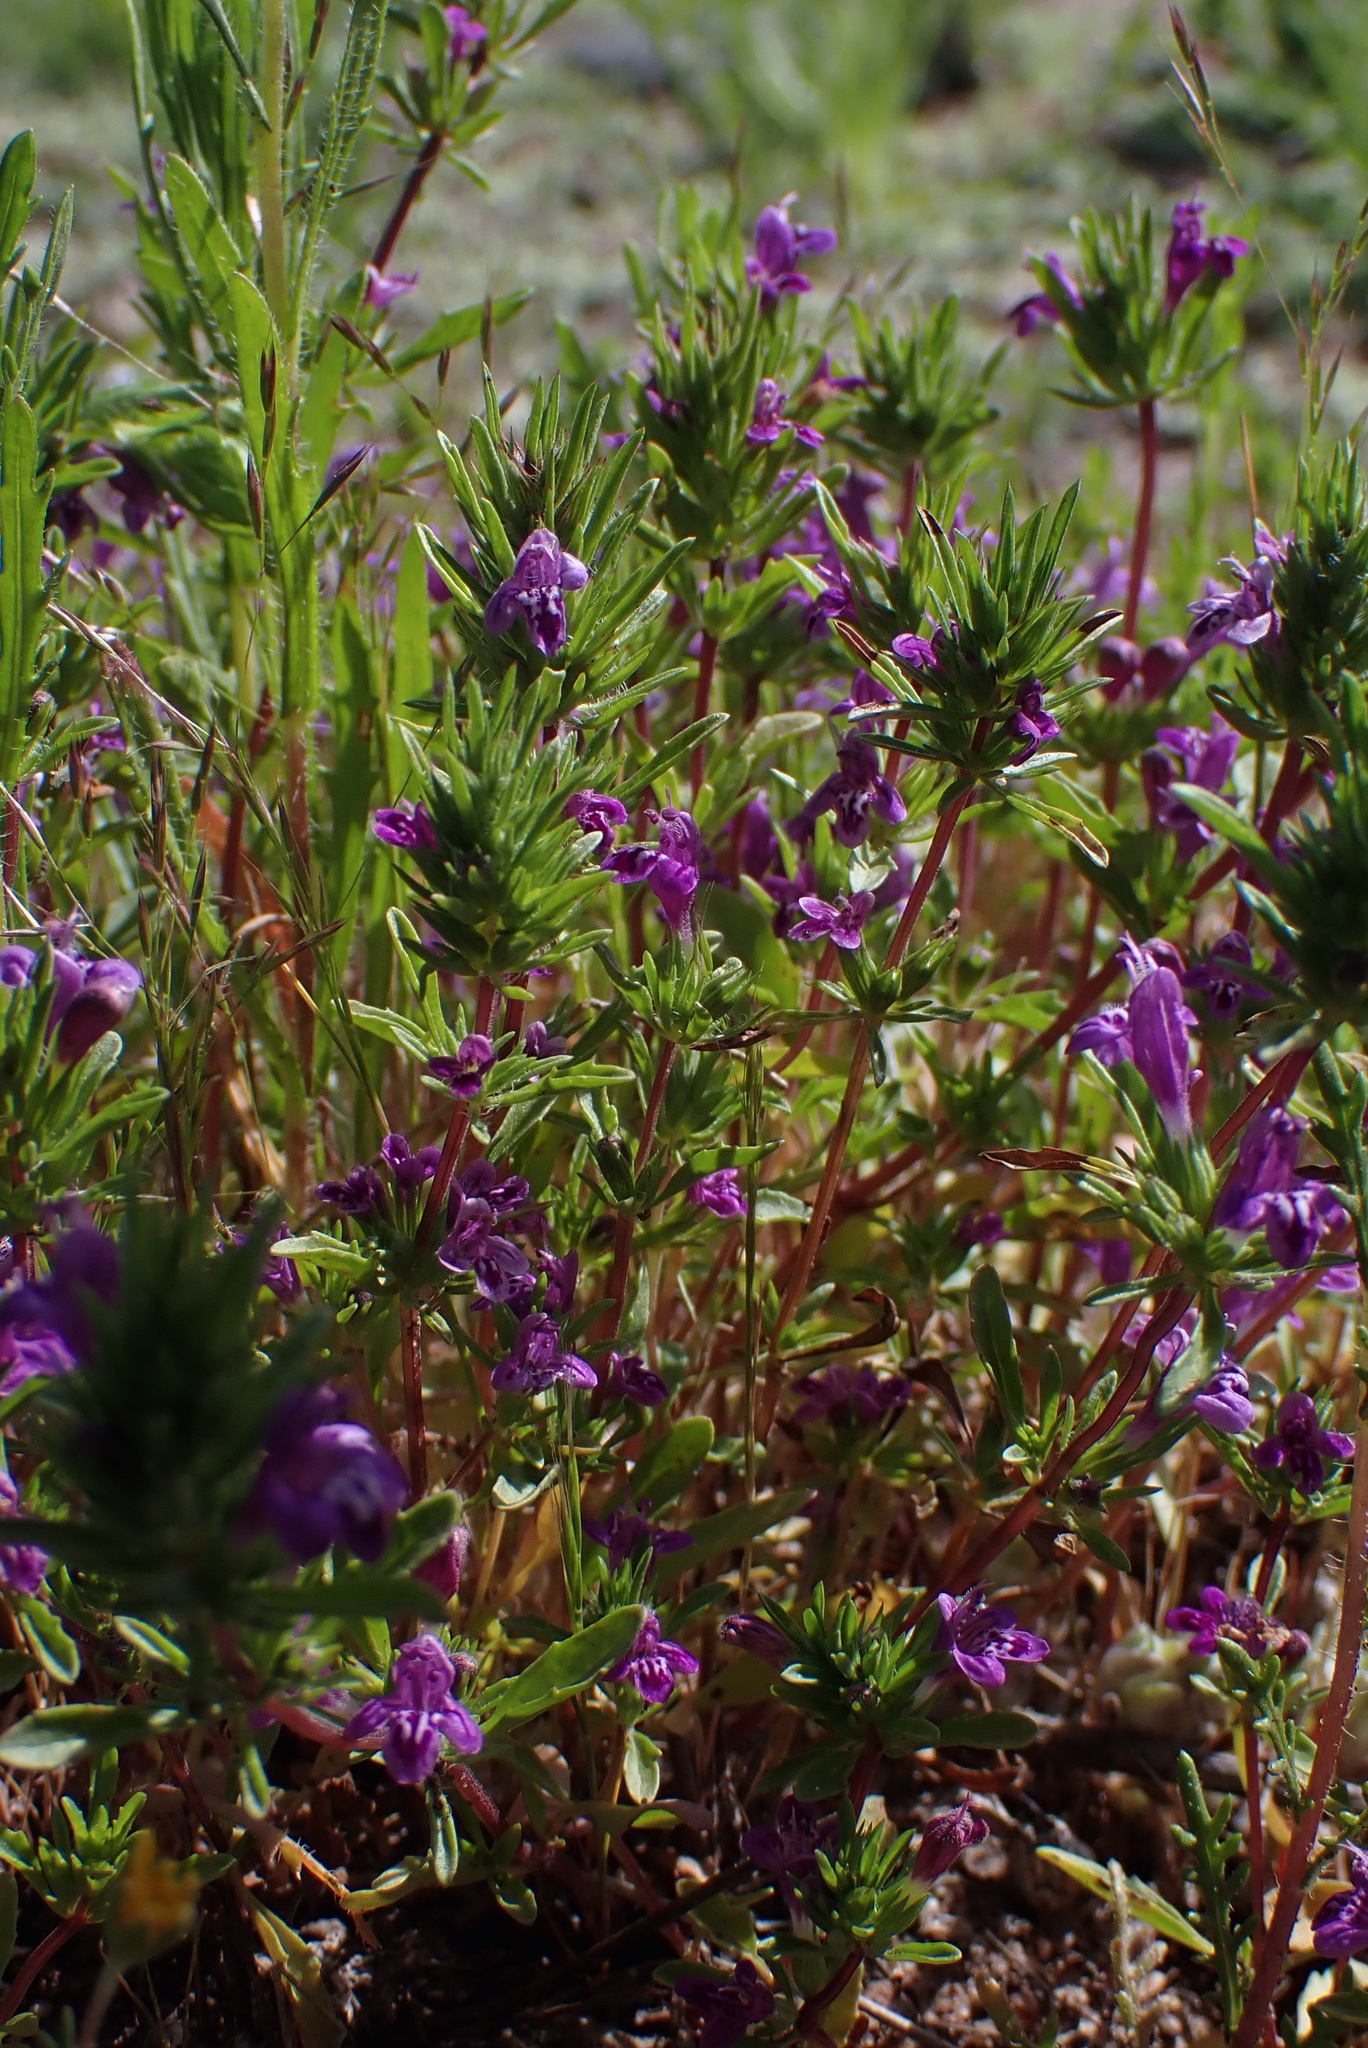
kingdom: Plantae
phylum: Tracheophyta
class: Magnoliopsida
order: Lamiales
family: Lamiaceae
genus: Pogogyne
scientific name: Pogogyne nudiuscula
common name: Otay mesa-mint
